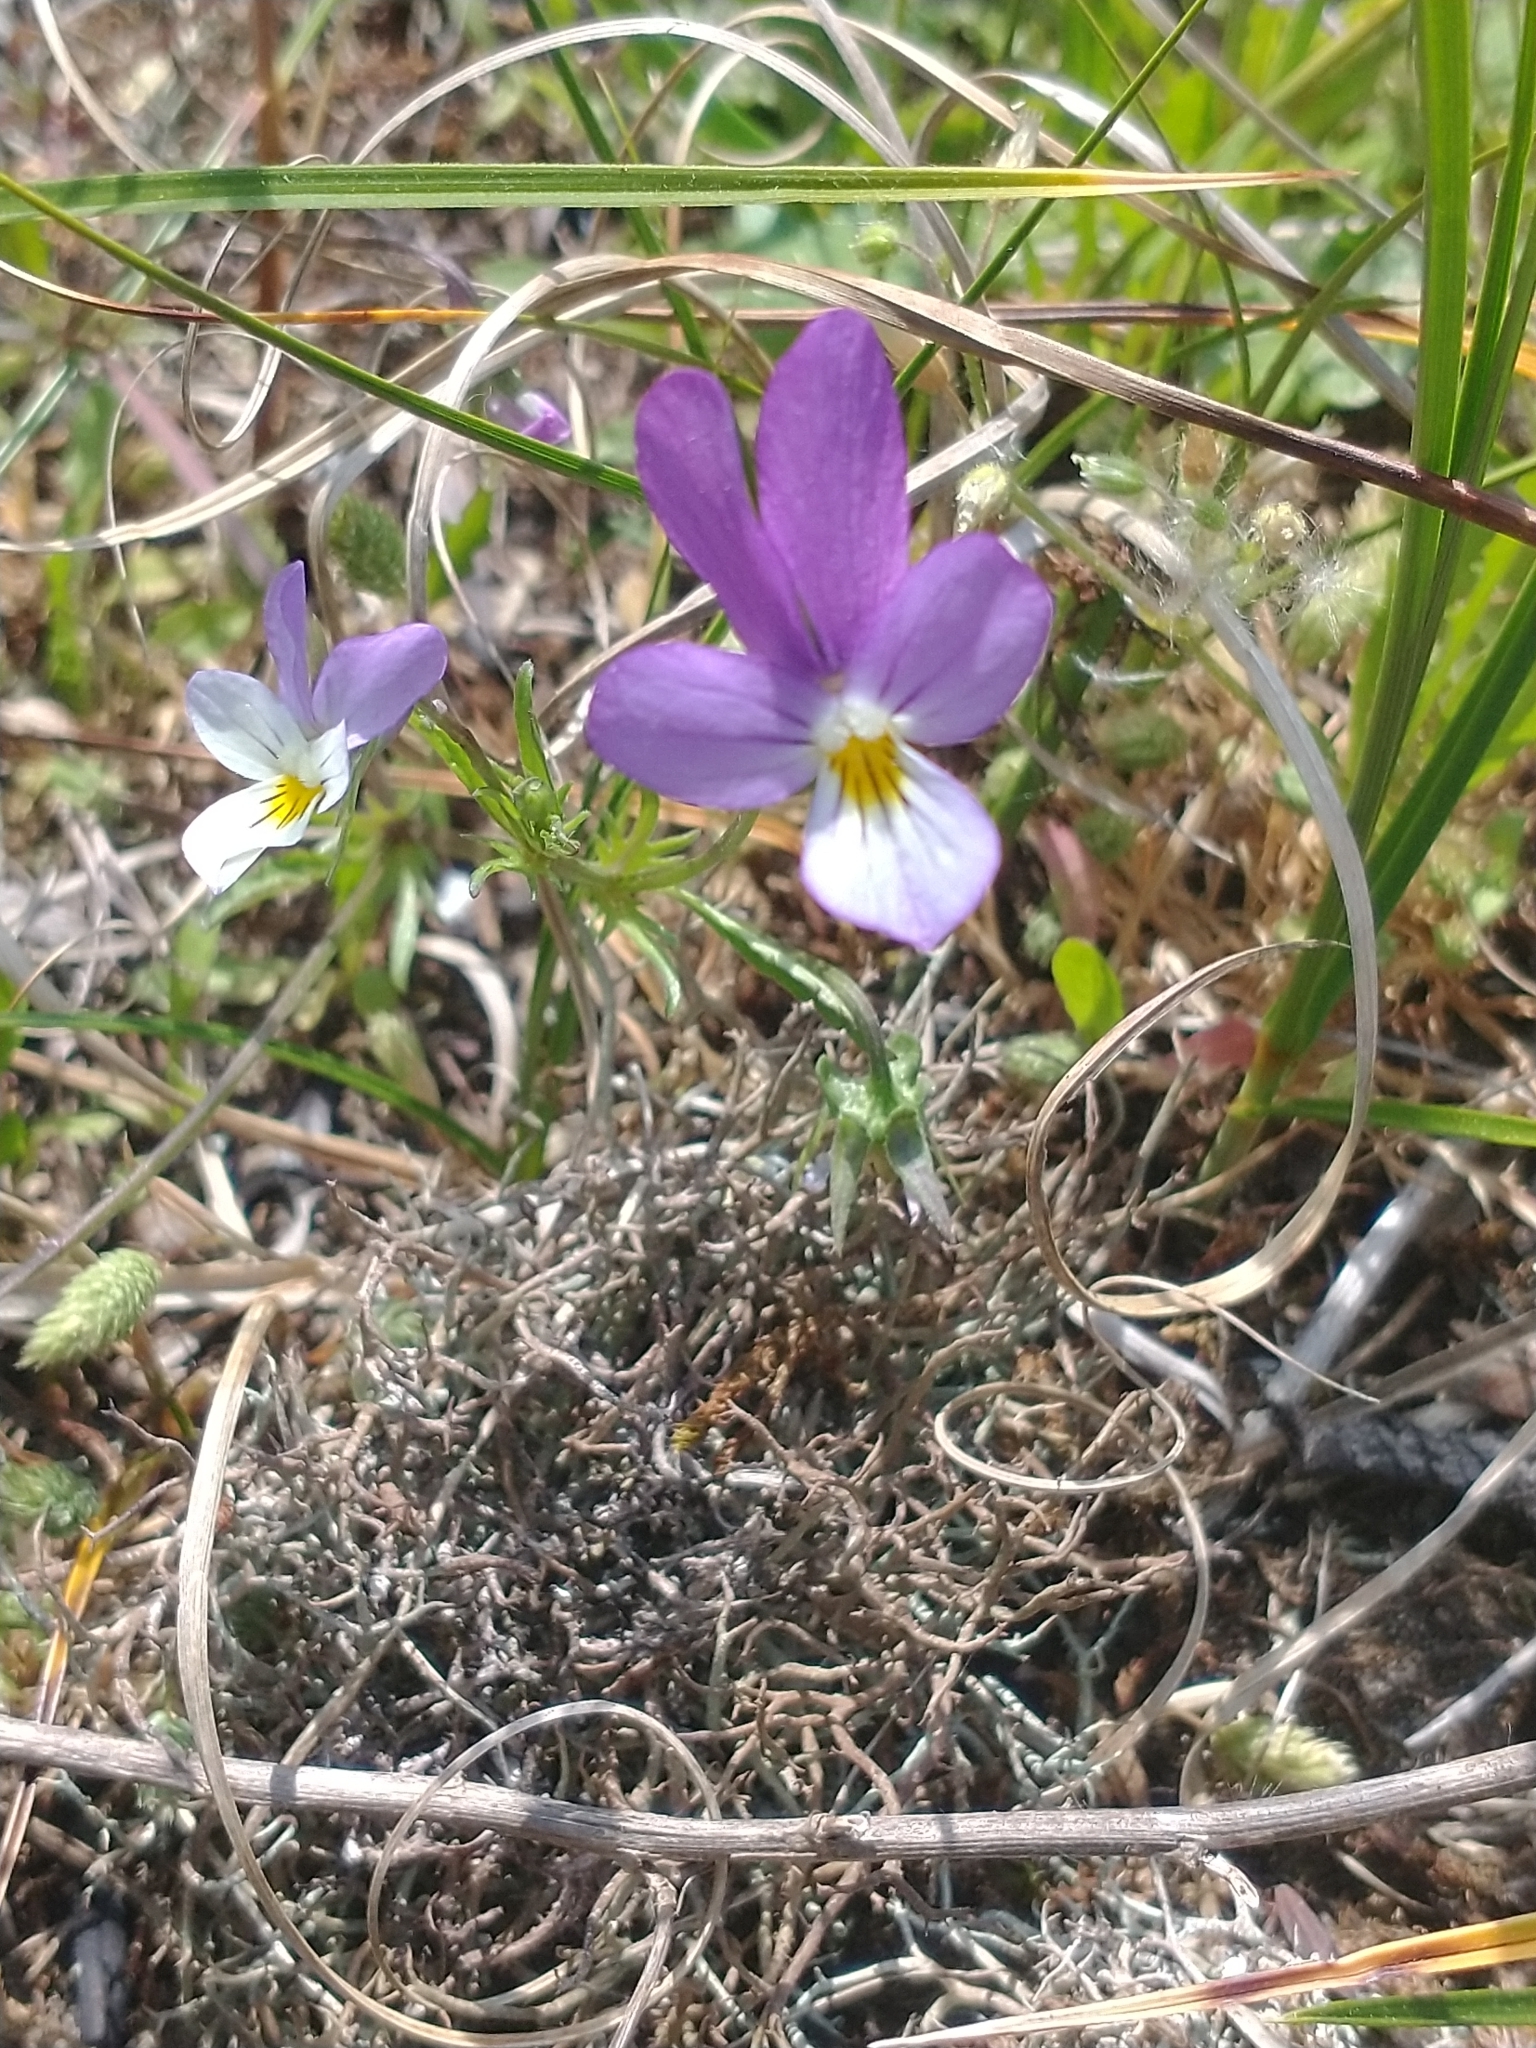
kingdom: Plantae
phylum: Tracheophyta
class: Magnoliopsida
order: Malpighiales
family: Violaceae
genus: Viola
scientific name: Viola tricolor
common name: Pansy
